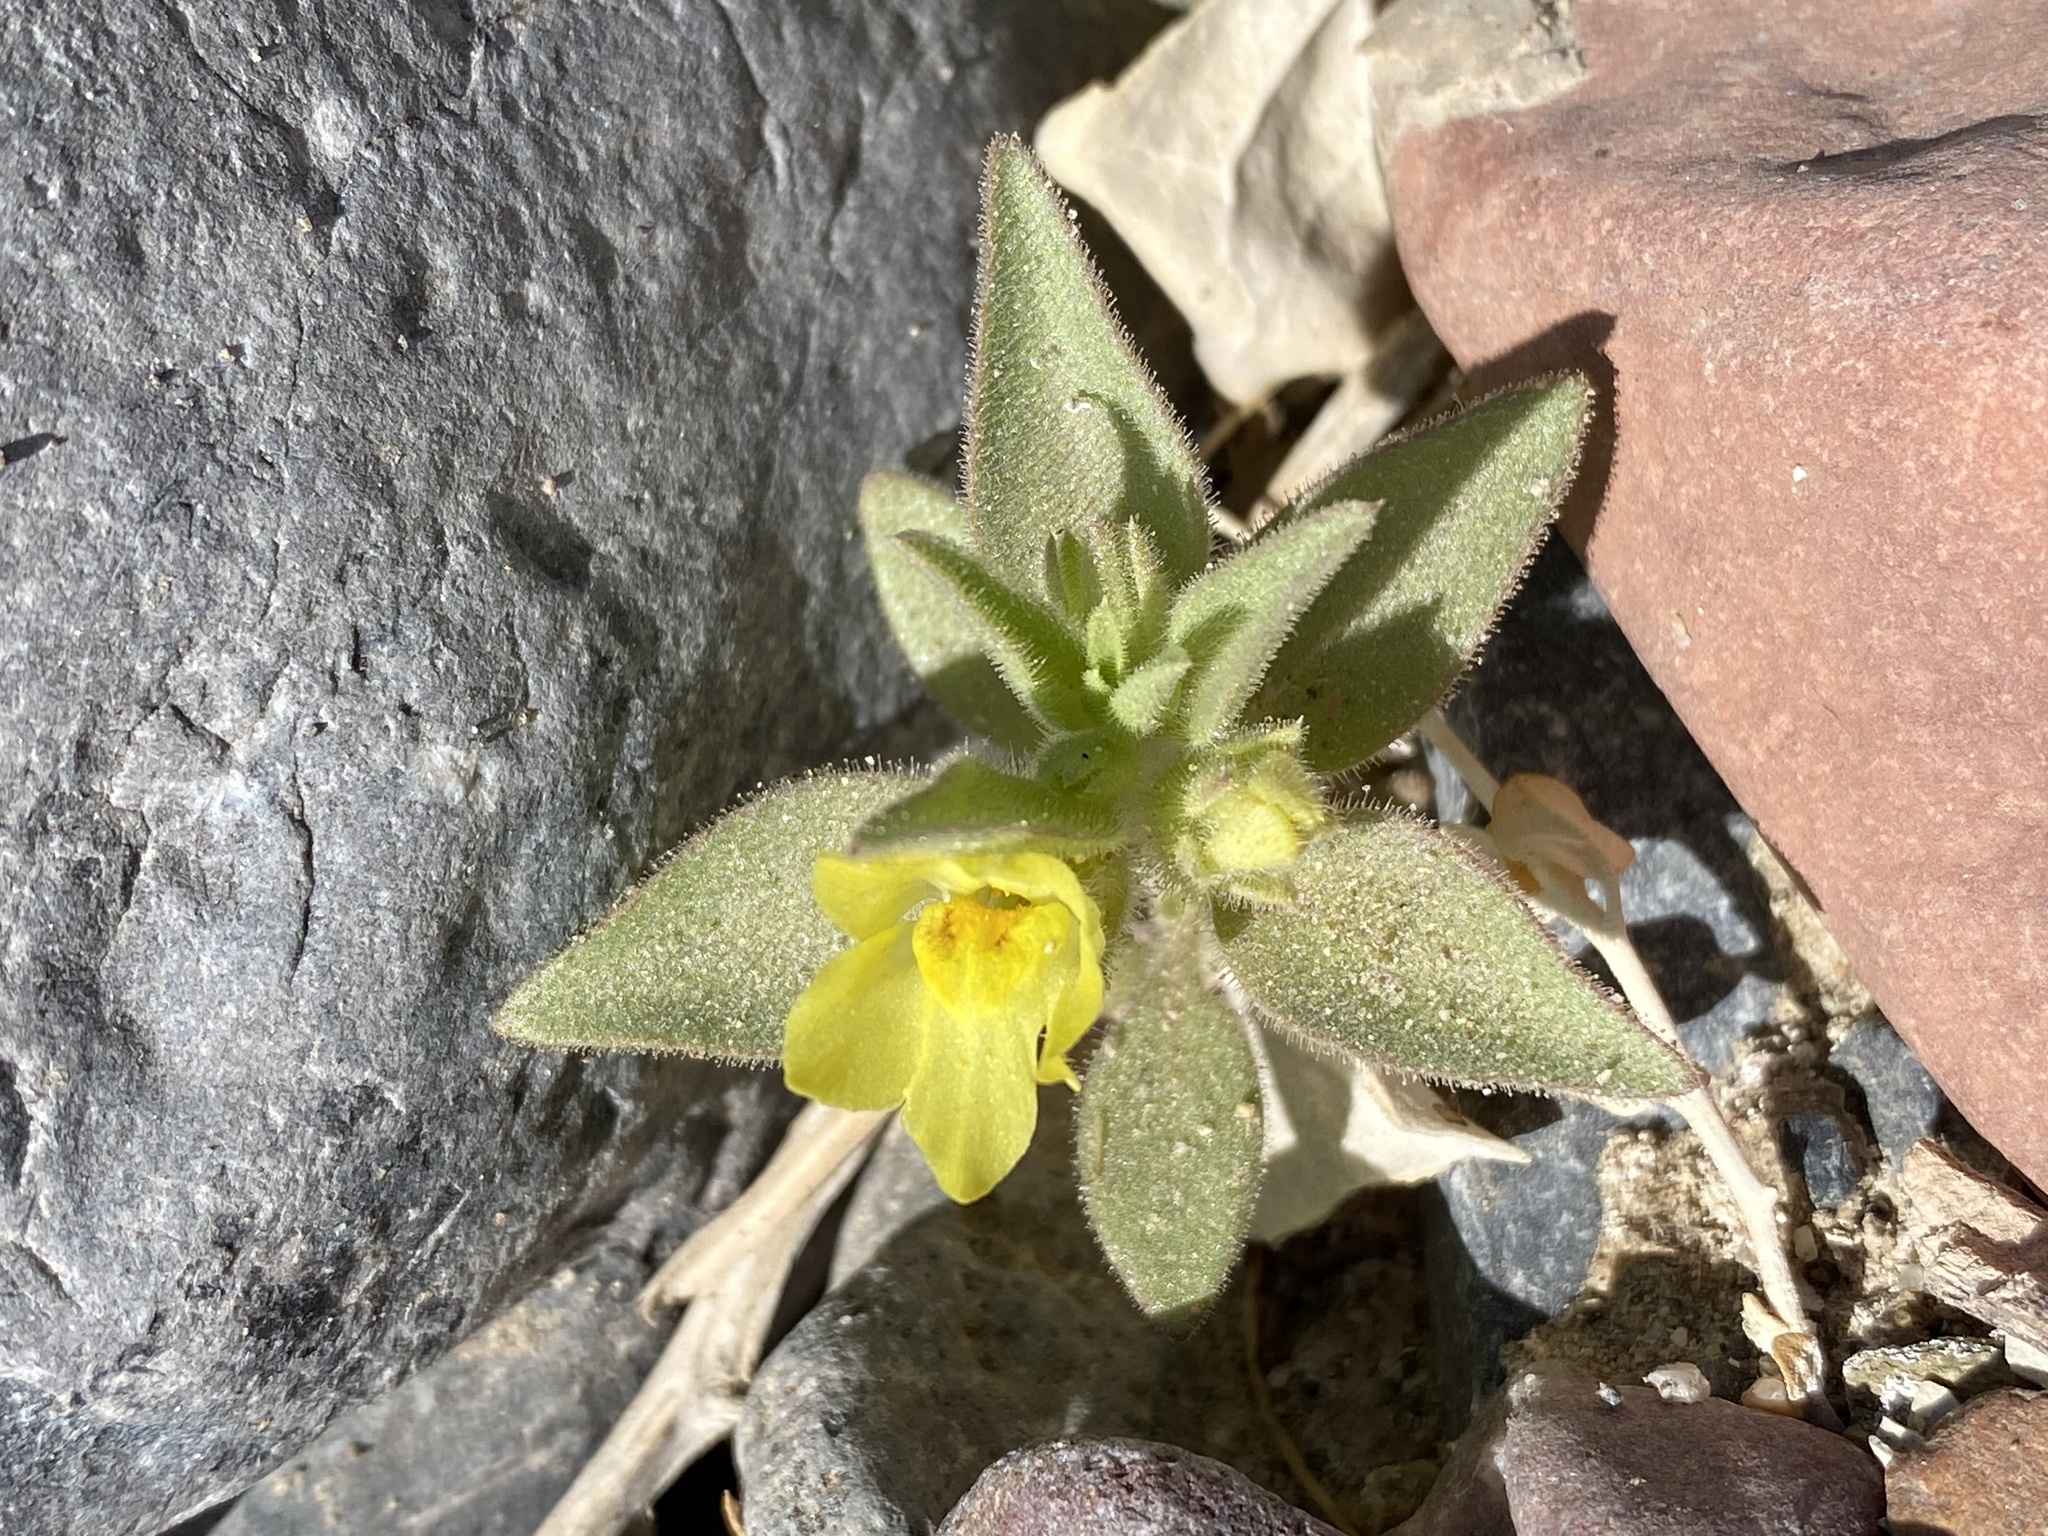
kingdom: Plantae
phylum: Tracheophyta
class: Magnoliopsida
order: Lamiales
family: Plantaginaceae
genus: Mohavea
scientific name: Mohavea breviflora
